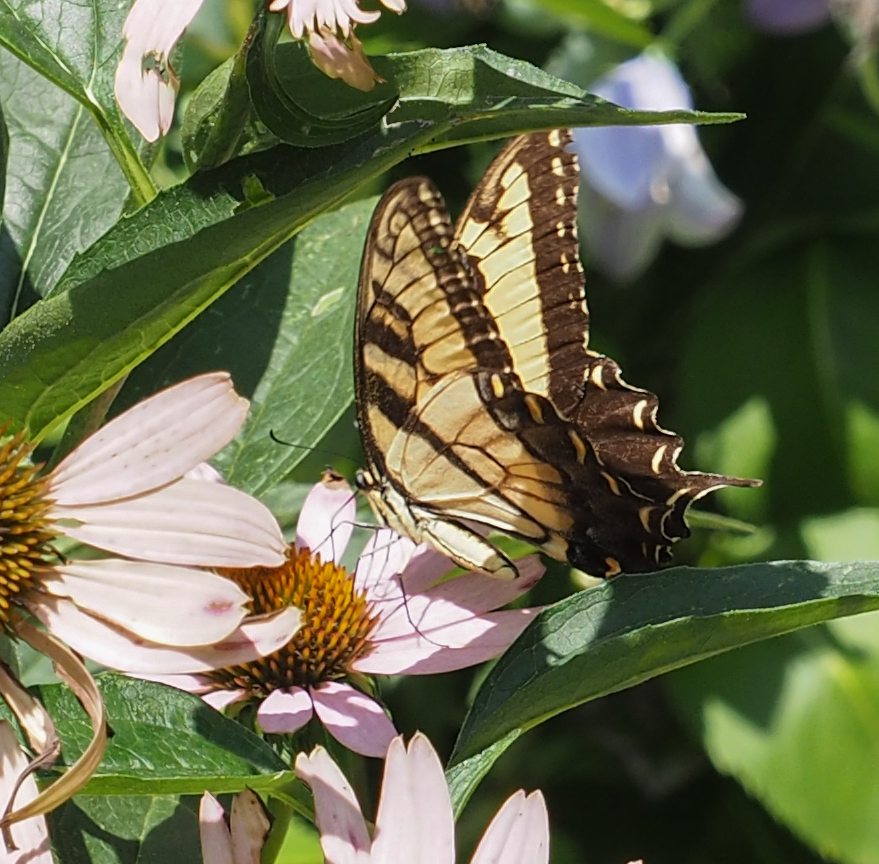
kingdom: Animalia
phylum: Arthropoda
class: Insecta
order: Lepidoptera
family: Papilionidae
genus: Papilio
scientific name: Papilio glaucus
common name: Tiger swallowtail
